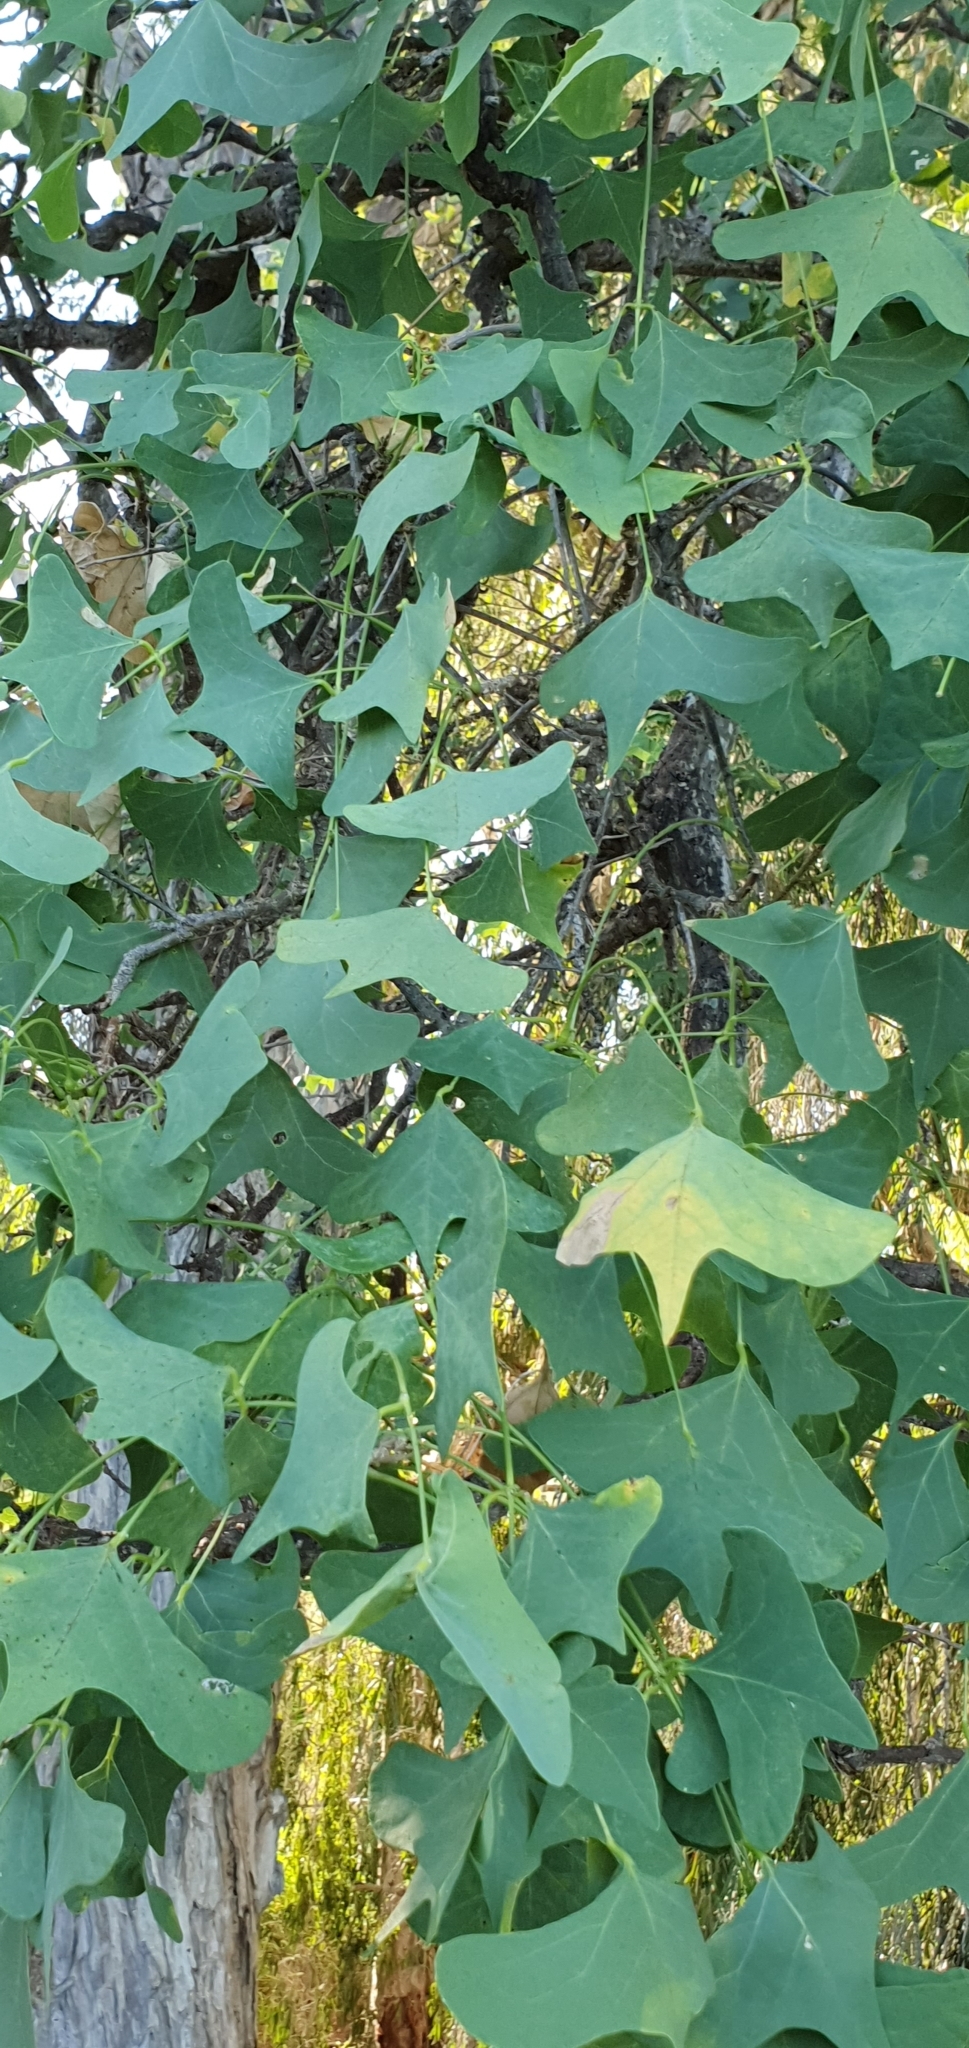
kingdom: Plantae
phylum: Tracheophyta
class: Magnoliopsida
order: Fabales
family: Fabaceae
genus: Erythrina
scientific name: Erythrina vespertilio
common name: Bat-wing coral tree
